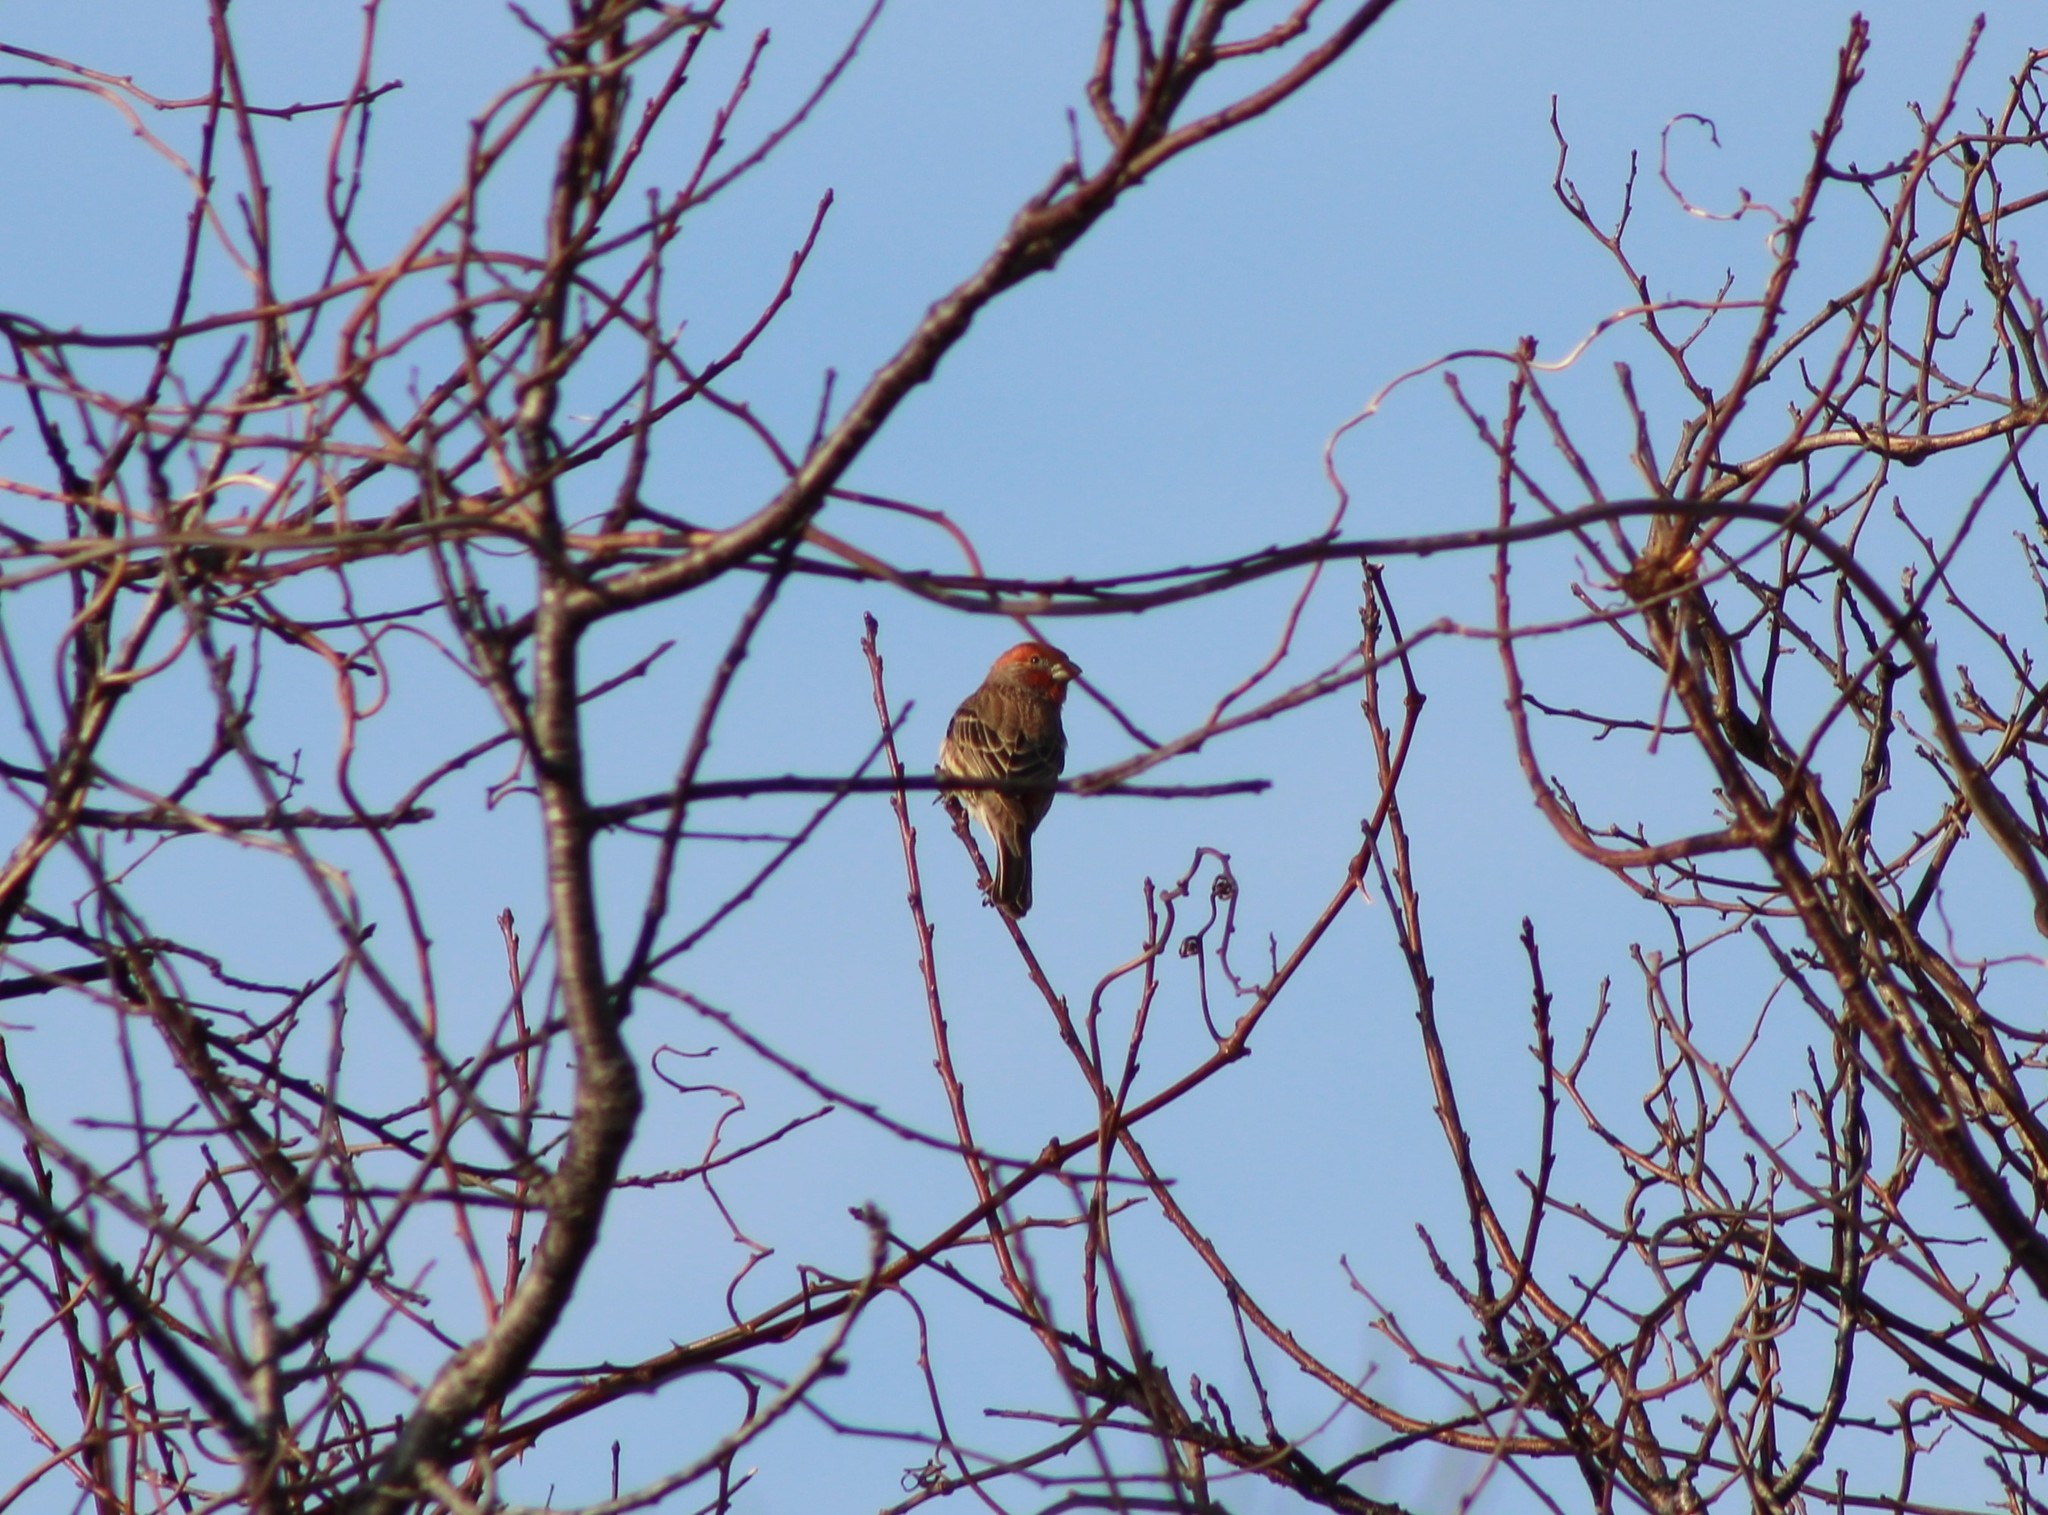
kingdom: Animalia
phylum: Chordata
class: Aves
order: Passeriformes
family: Fringillidae
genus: Haemorhous
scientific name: Haemorhous mexicanus
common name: House finch
